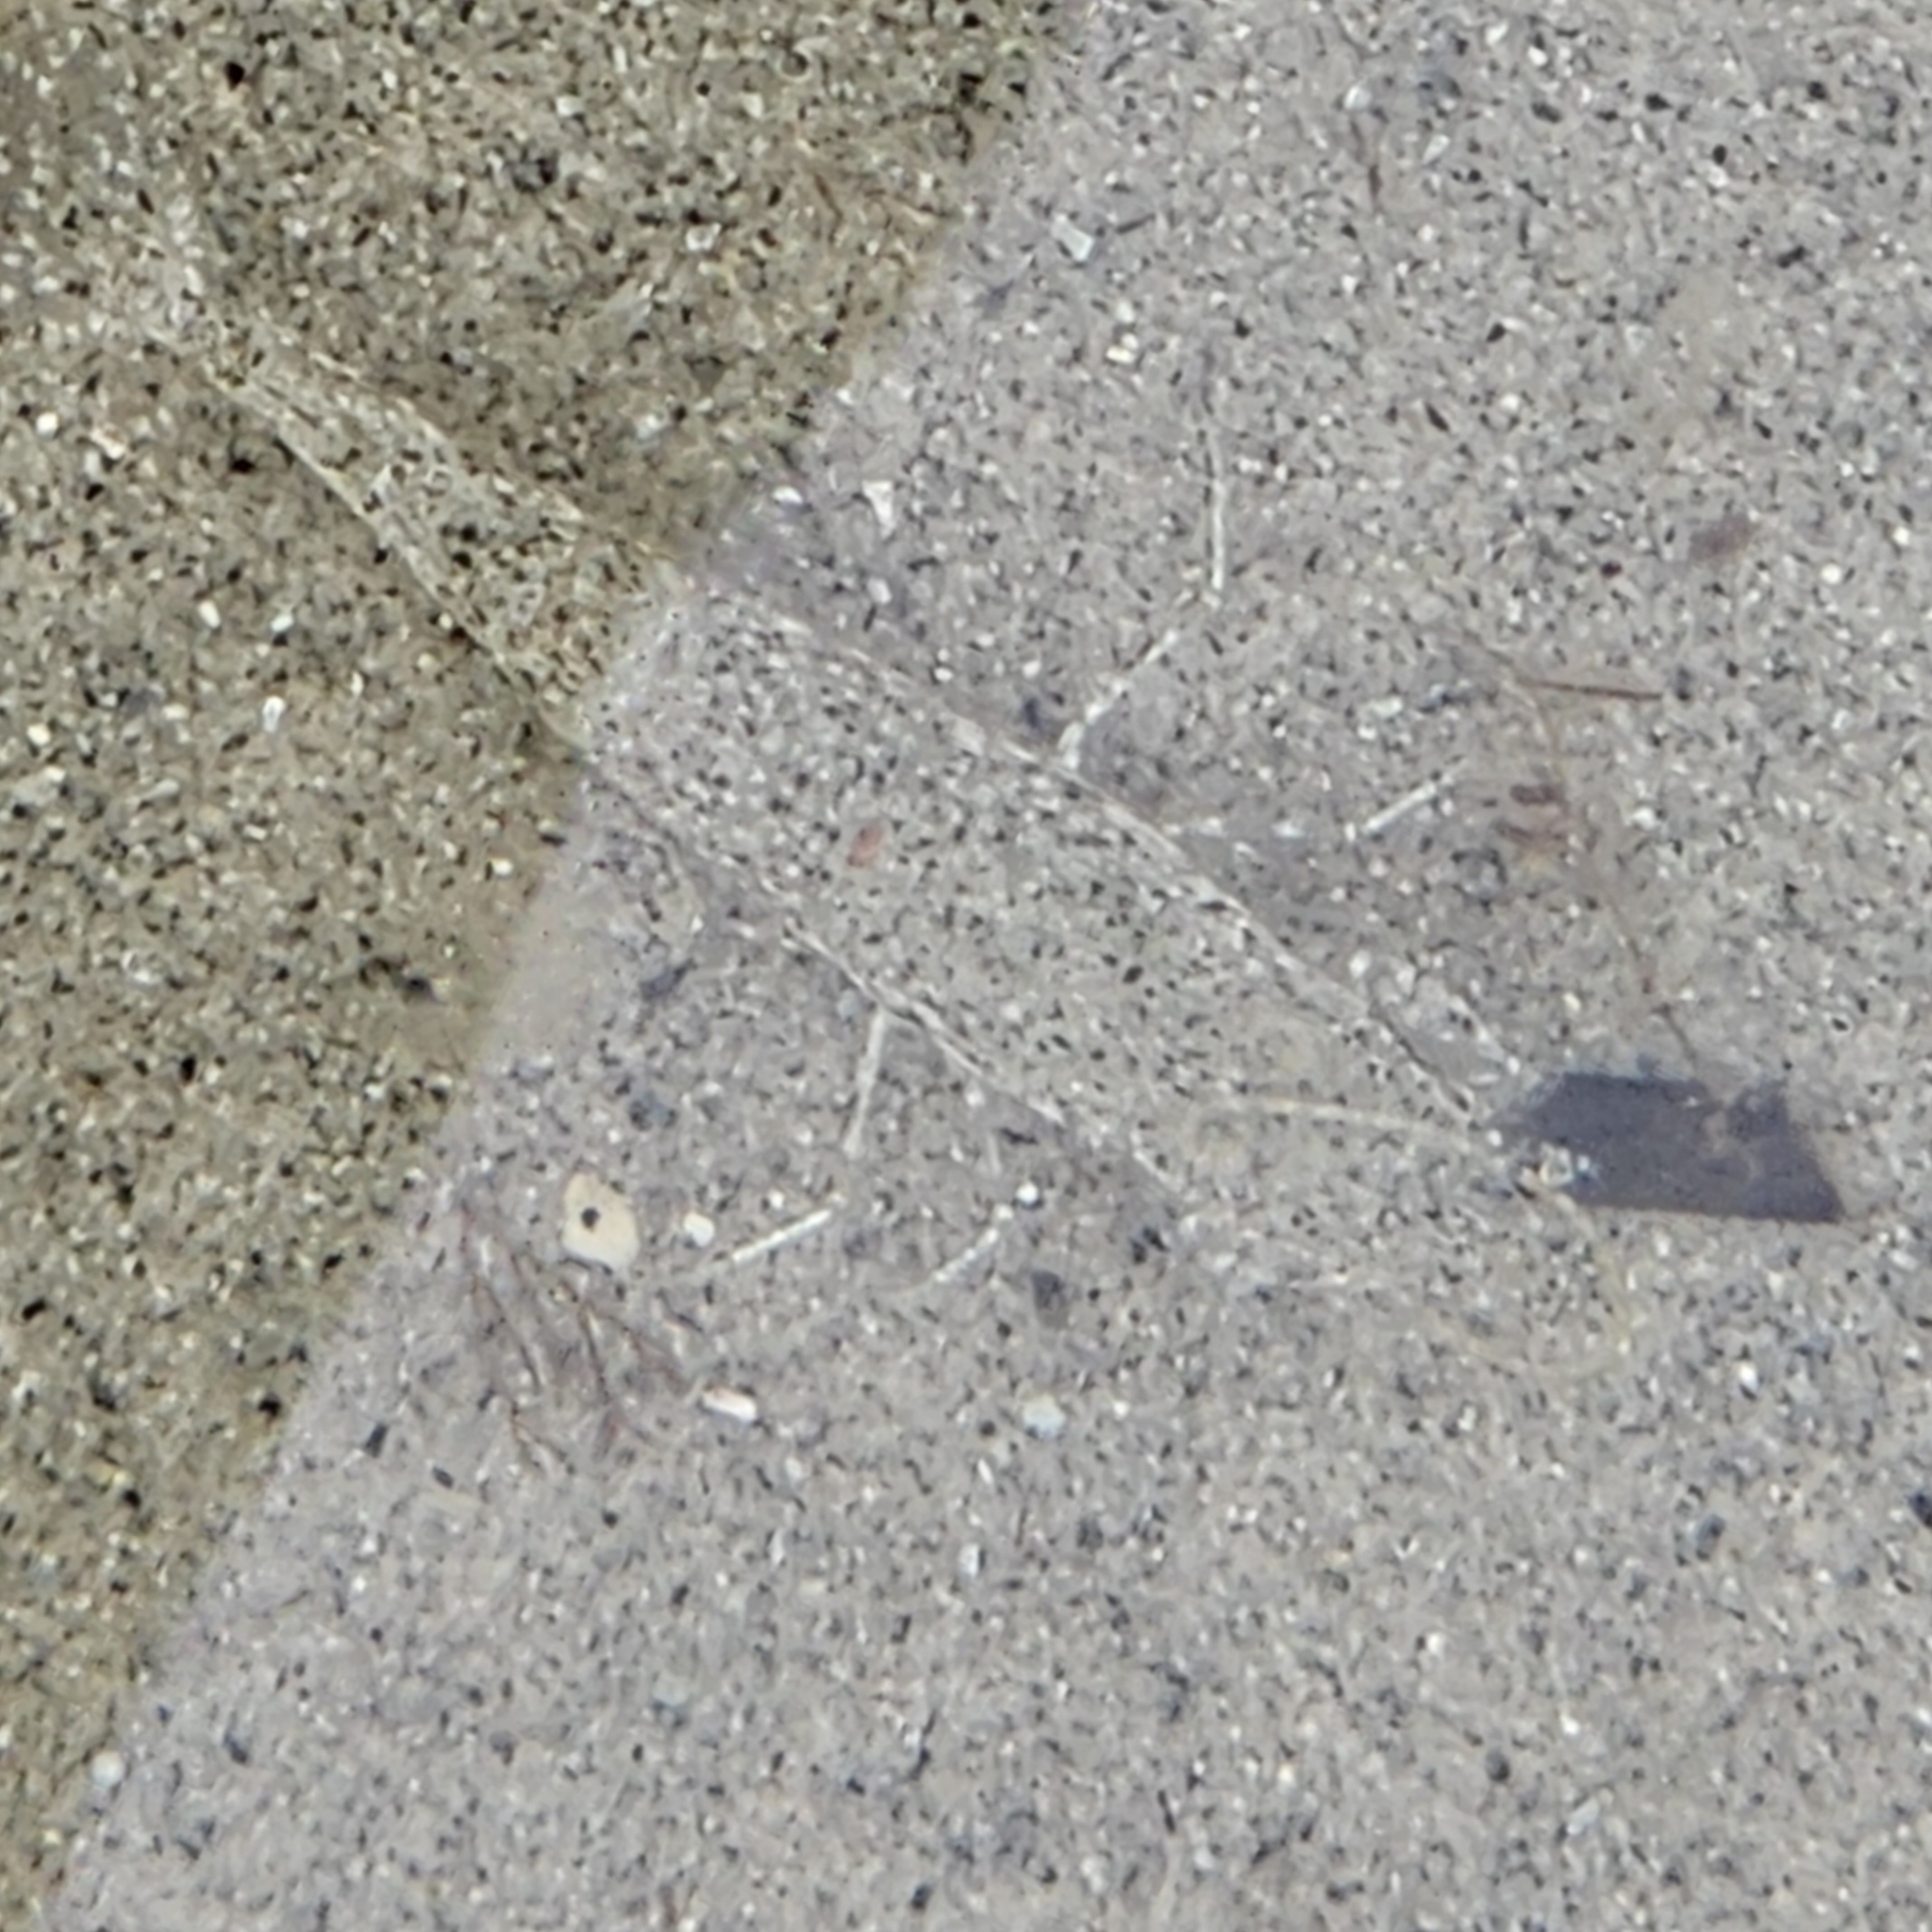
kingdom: Animalia
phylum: Arthropoda
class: Malacostraca
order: Decapoda
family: Crangonidae
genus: Crangon
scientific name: Crangon septemspinosa
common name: Bail shrimp
